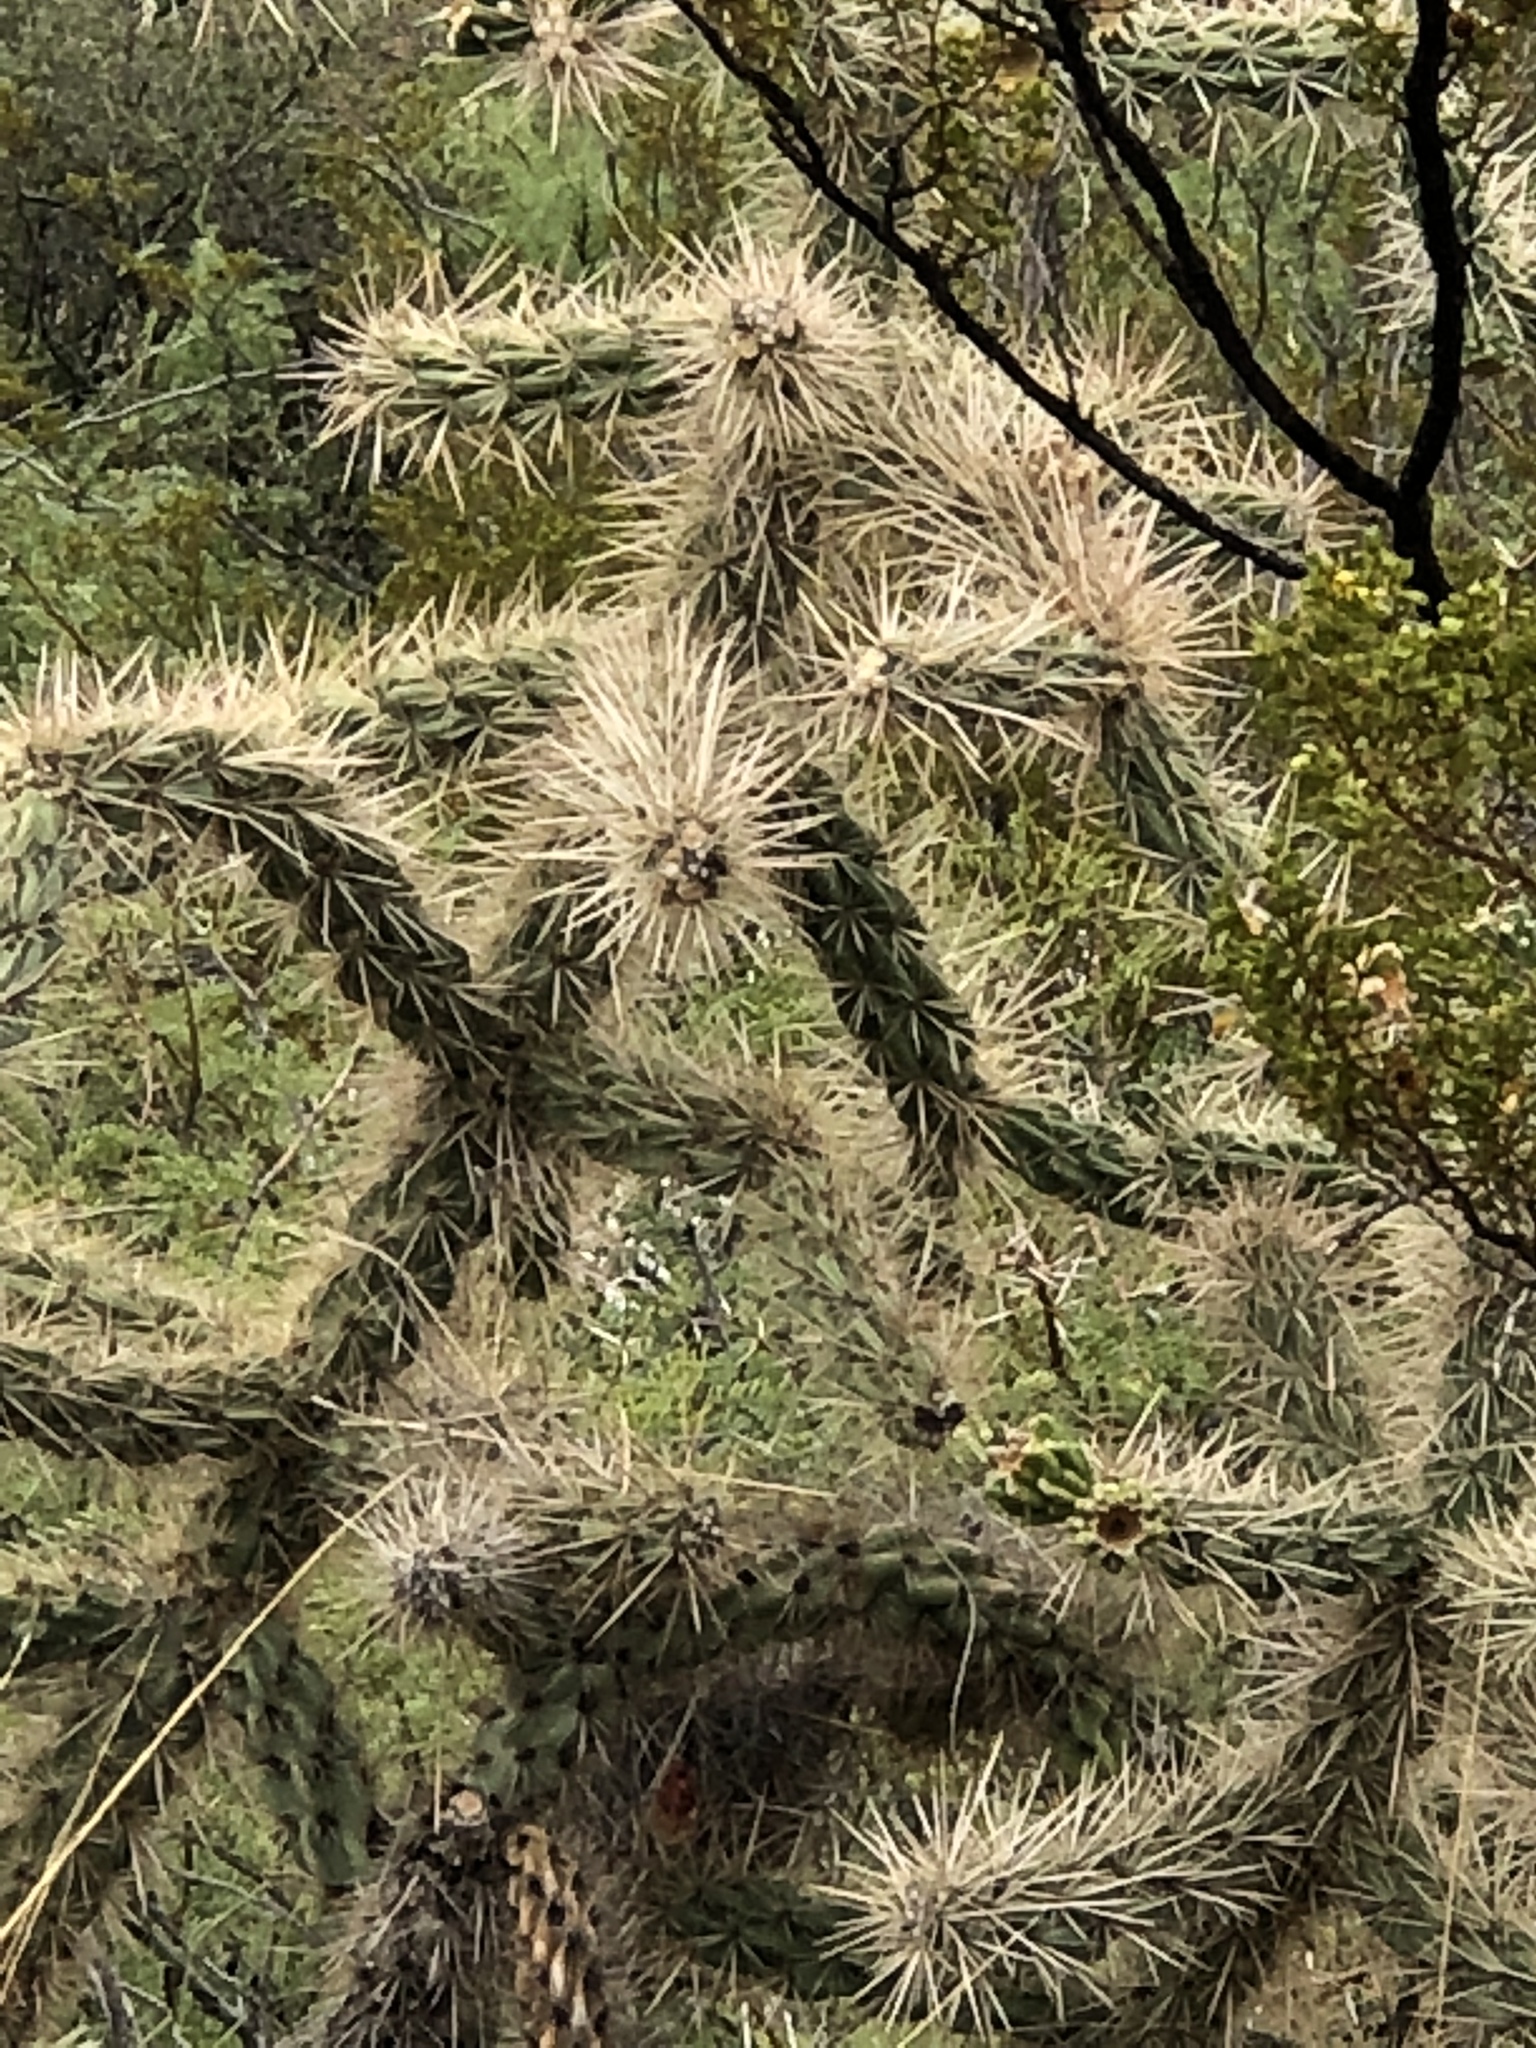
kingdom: Plantae
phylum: Tracheophyta
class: Magnoliopsida
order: Caryophyllales
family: Cactaceae
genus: Cylindropuntia
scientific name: Cylindropuntia imbricata
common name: Candelabrum cactus
